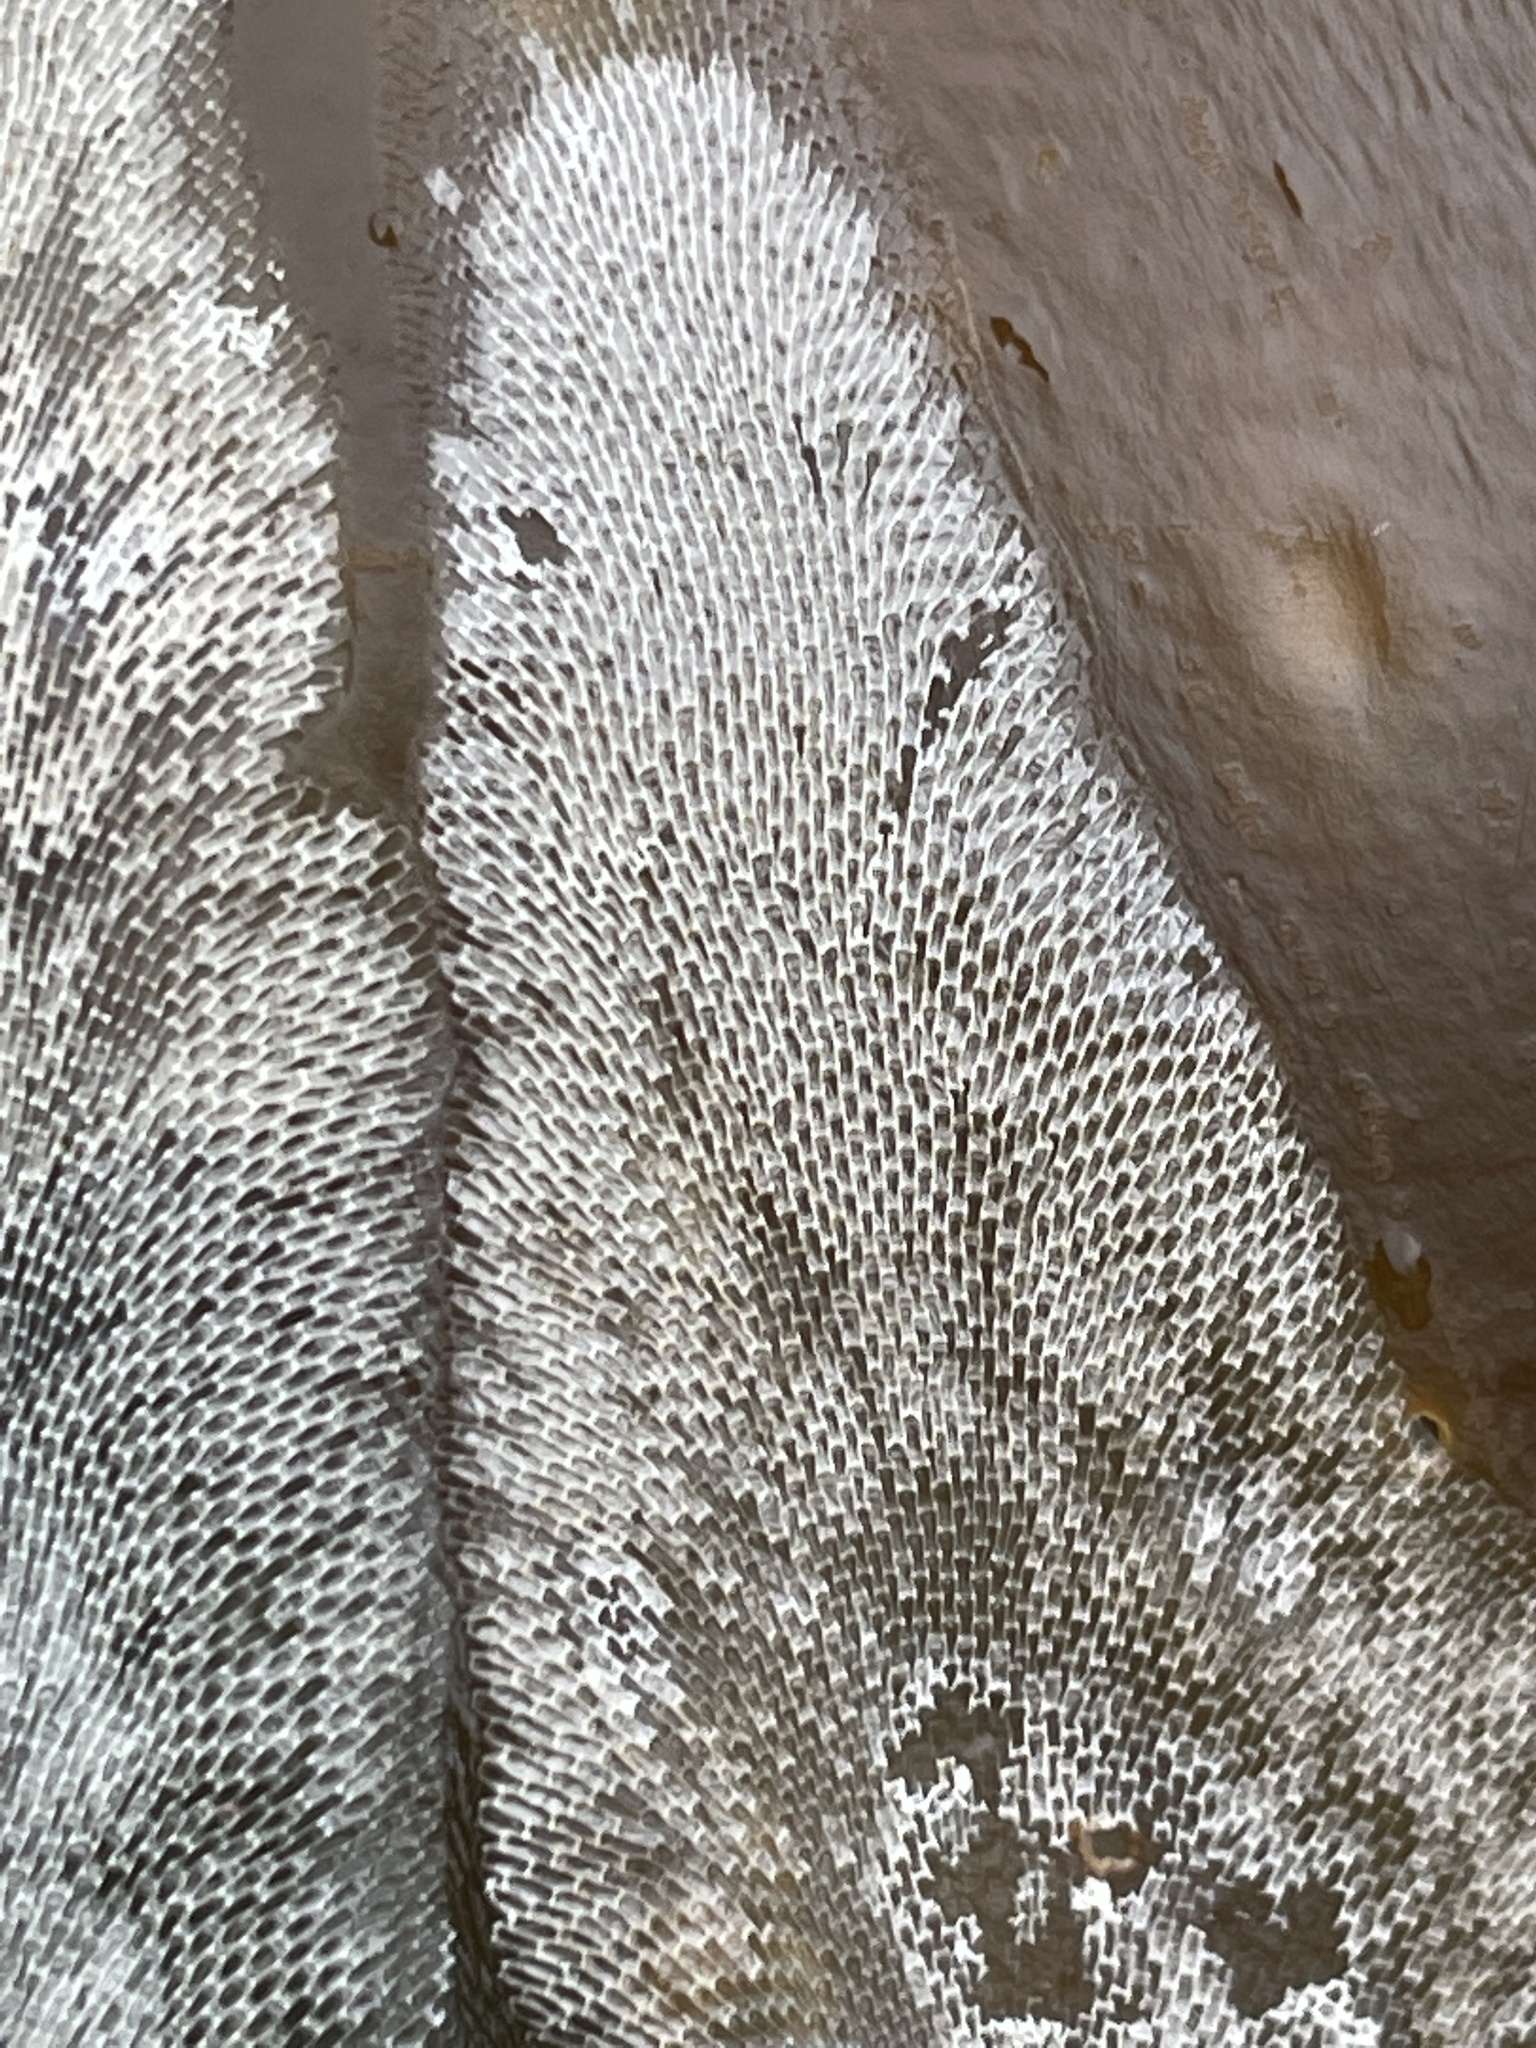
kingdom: Animalia
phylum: Bryozoa
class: Gymnolaemata
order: Cheilostomatida
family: Membraniporidae
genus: Membranipora
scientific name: Membranipora membranacea
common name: Sea mat
